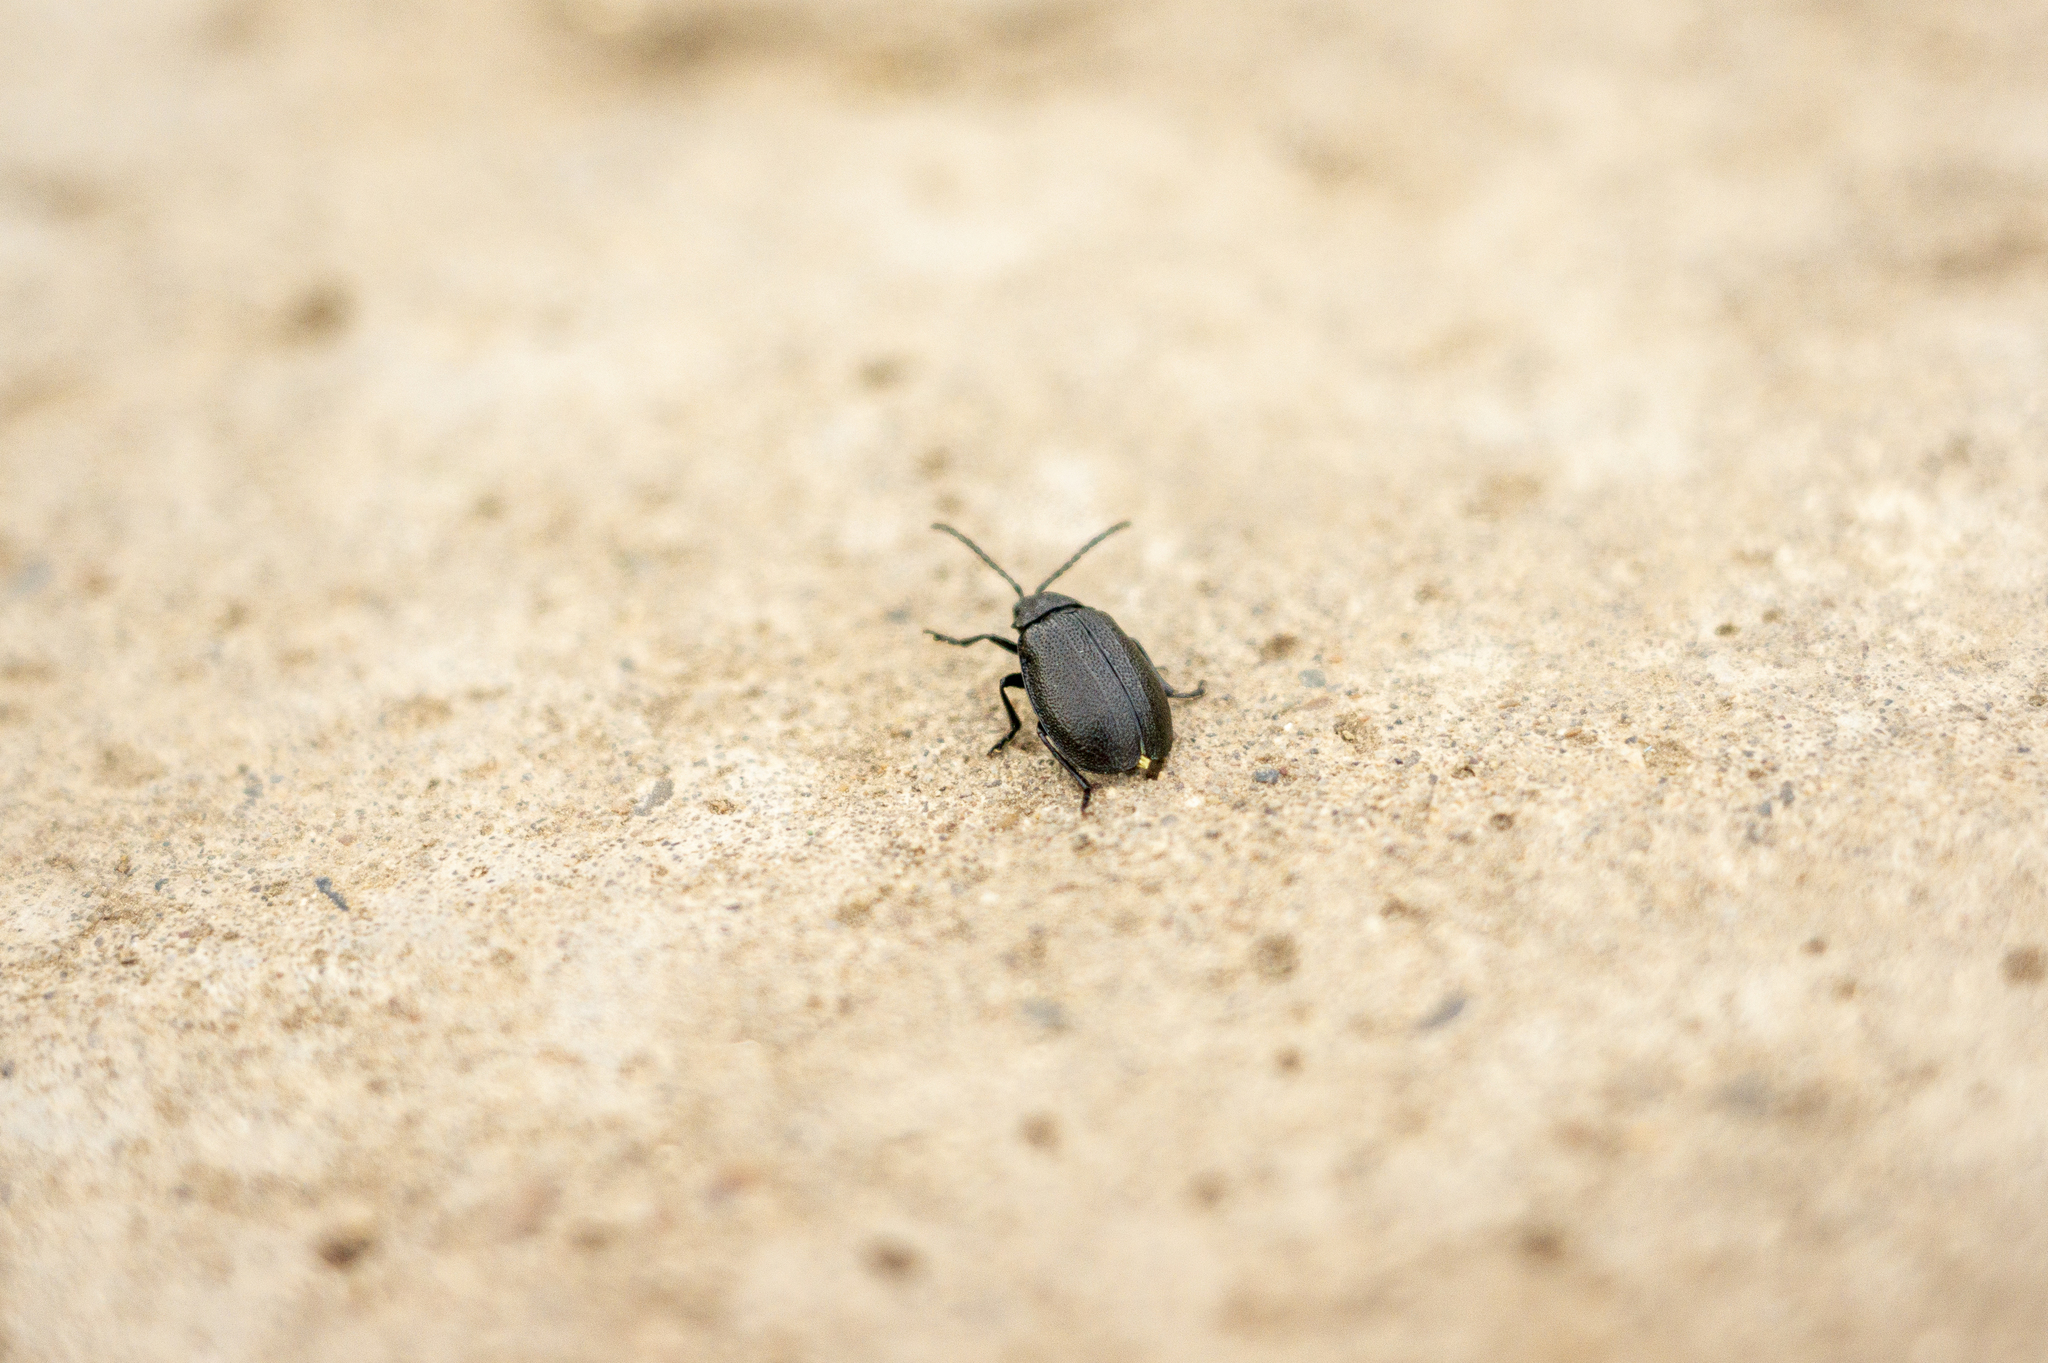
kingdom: Animalia
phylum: Arthropoda
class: Insecta
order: Coleoptera
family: Chrysomelidae
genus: Galeruca
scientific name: Galeruca tanaceti
